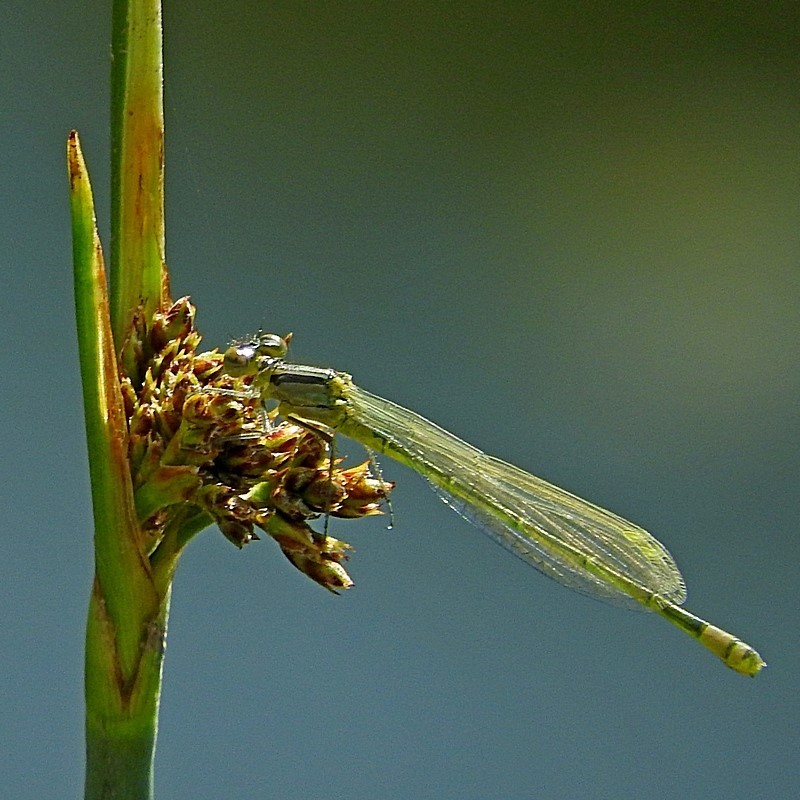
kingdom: Animalia
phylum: Arthropoda
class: Insecta
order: Odonata
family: Coenagrionidae
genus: Ischnura
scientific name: Ischnura heterosticta
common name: Common bluetail
